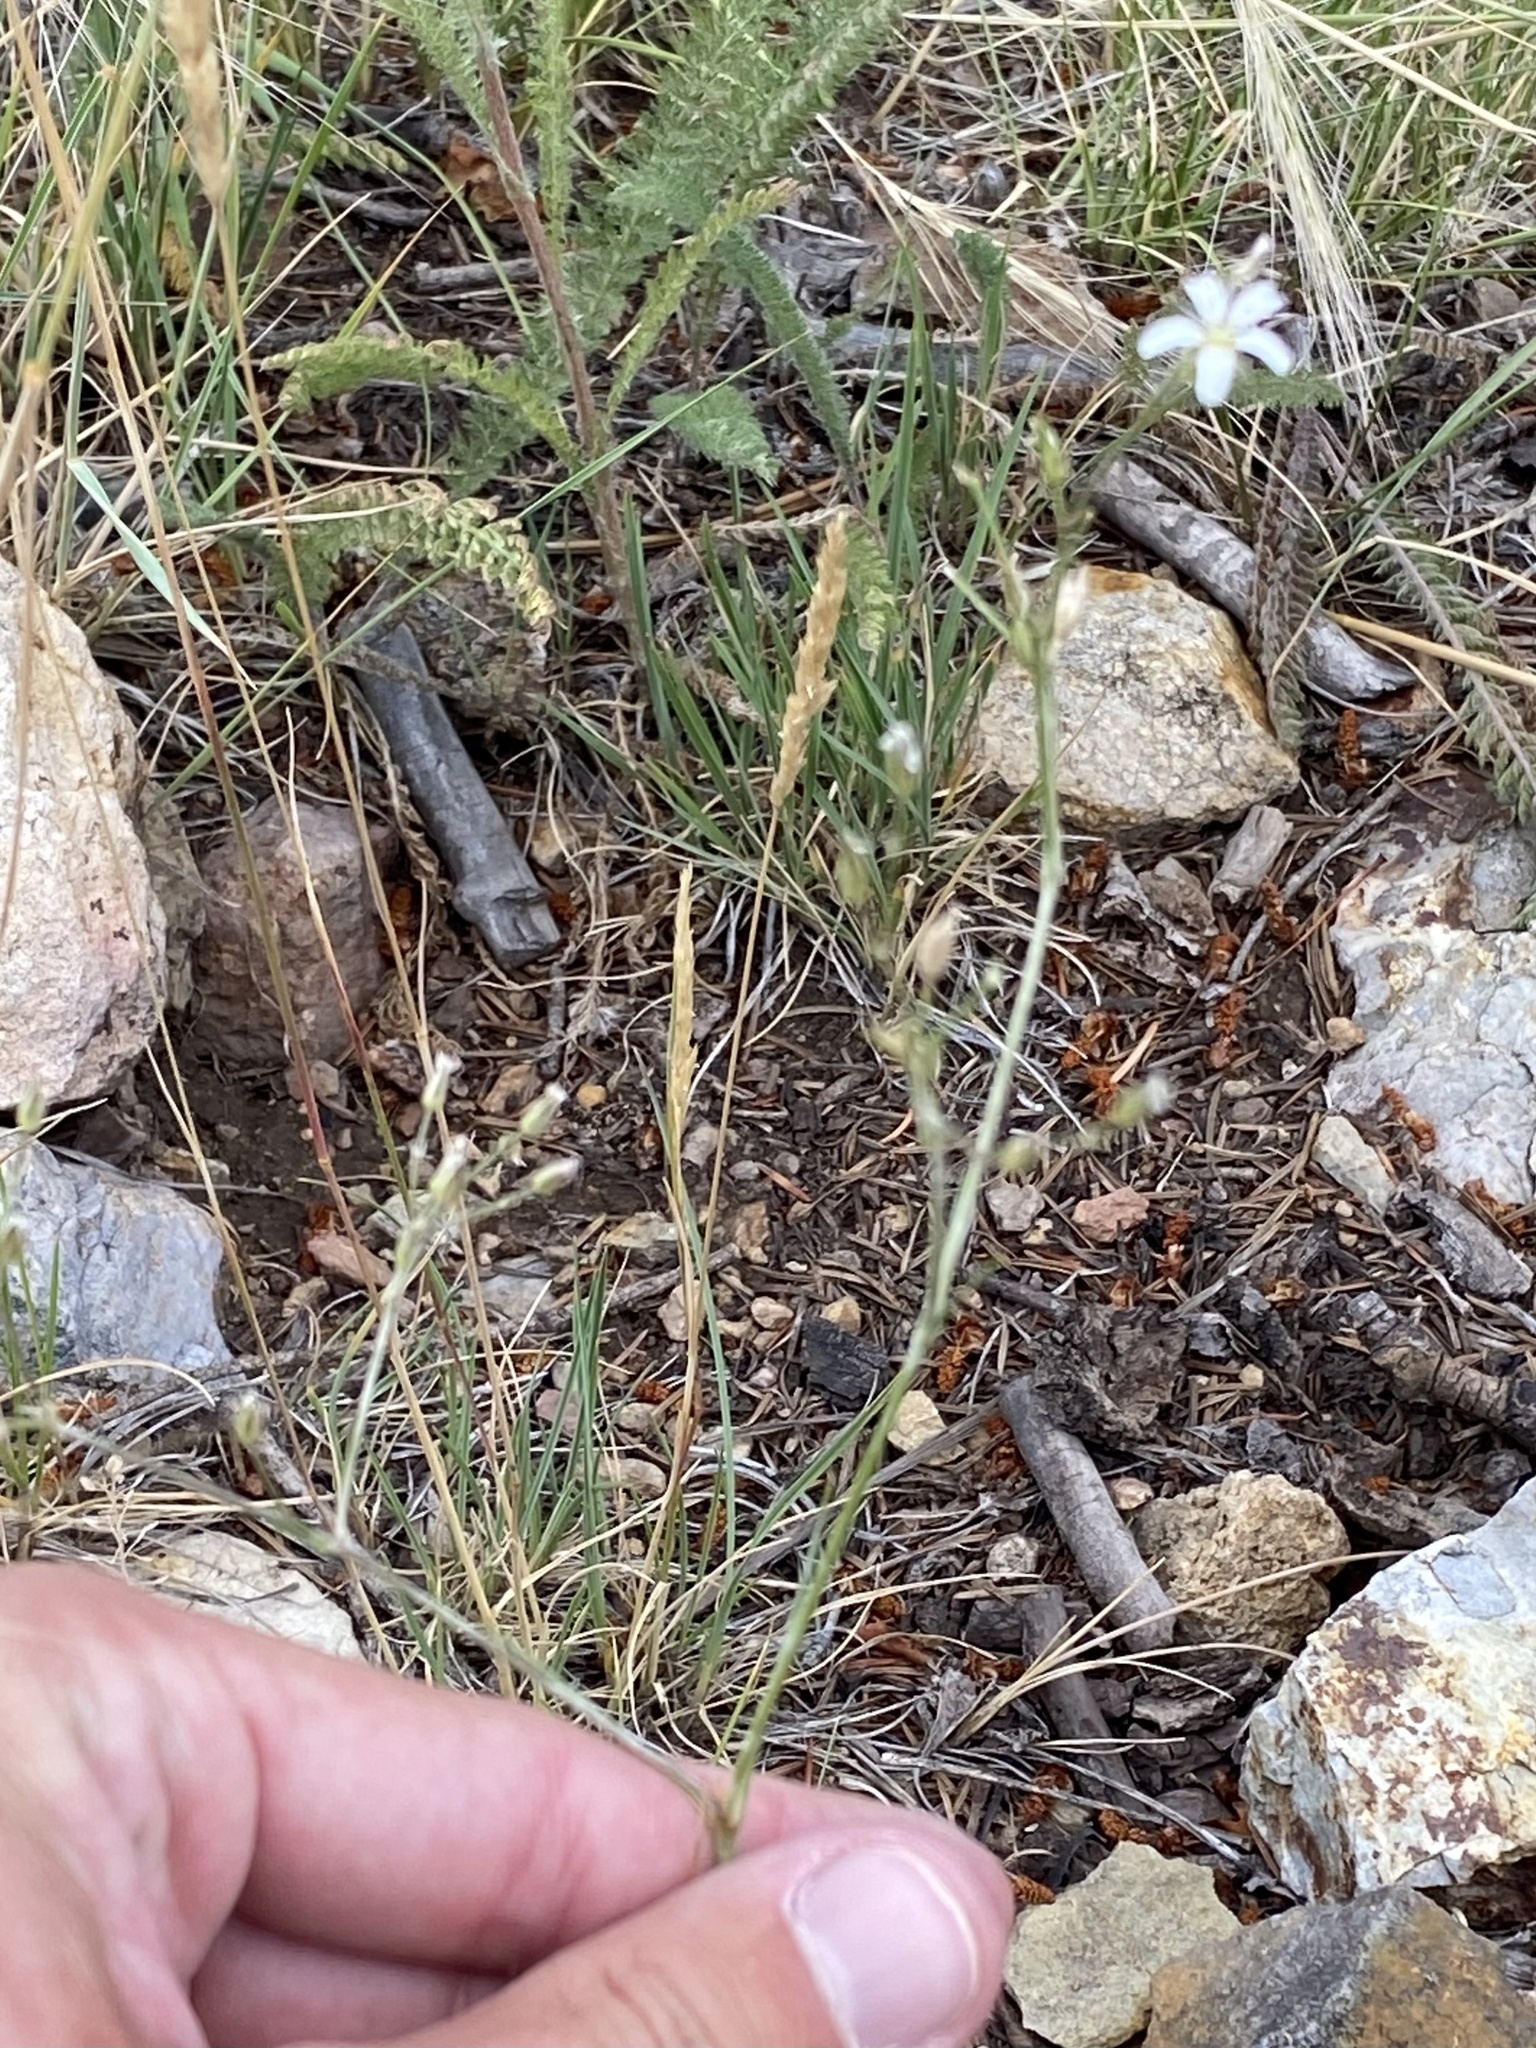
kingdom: Plantae
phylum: Tracheophyta
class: Magnoliopsida
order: Caryophyllales
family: Caryophyllaceae
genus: Eremogone
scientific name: Eremogone fendleri
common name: Fendler's sandwort
